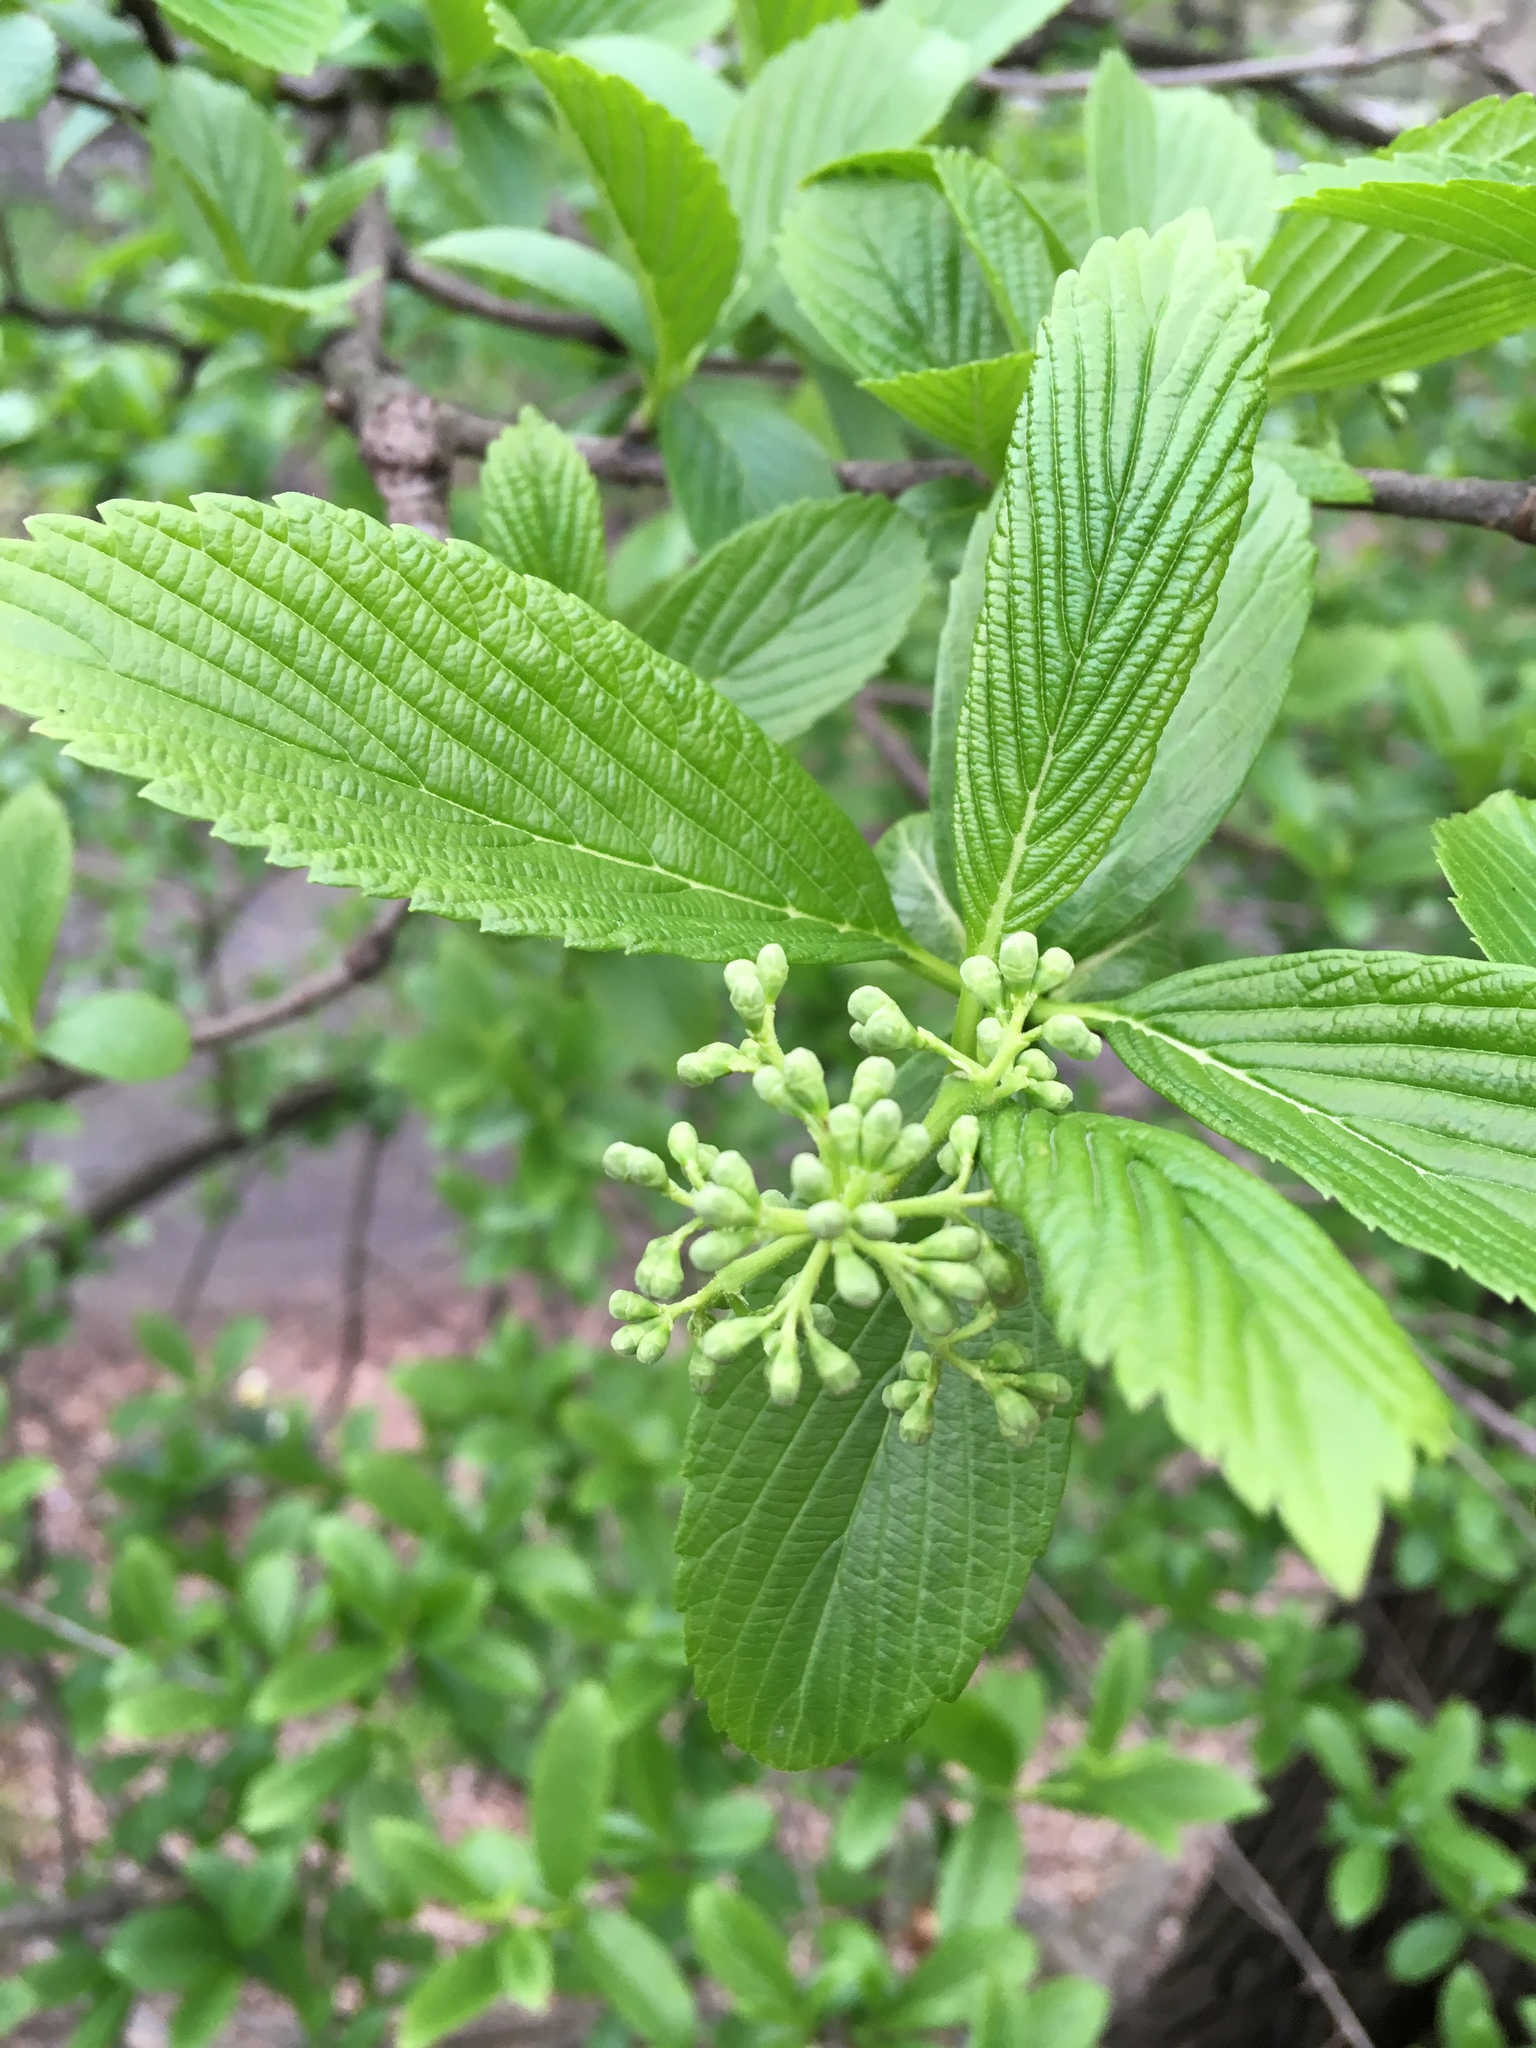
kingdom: Plantae
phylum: Tracheophyta
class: Magnoliopsida
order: Dipsacales
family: Viburnaceae
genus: Viburnum
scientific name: Viburnum sieboldii
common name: Siebold's arrowwood
